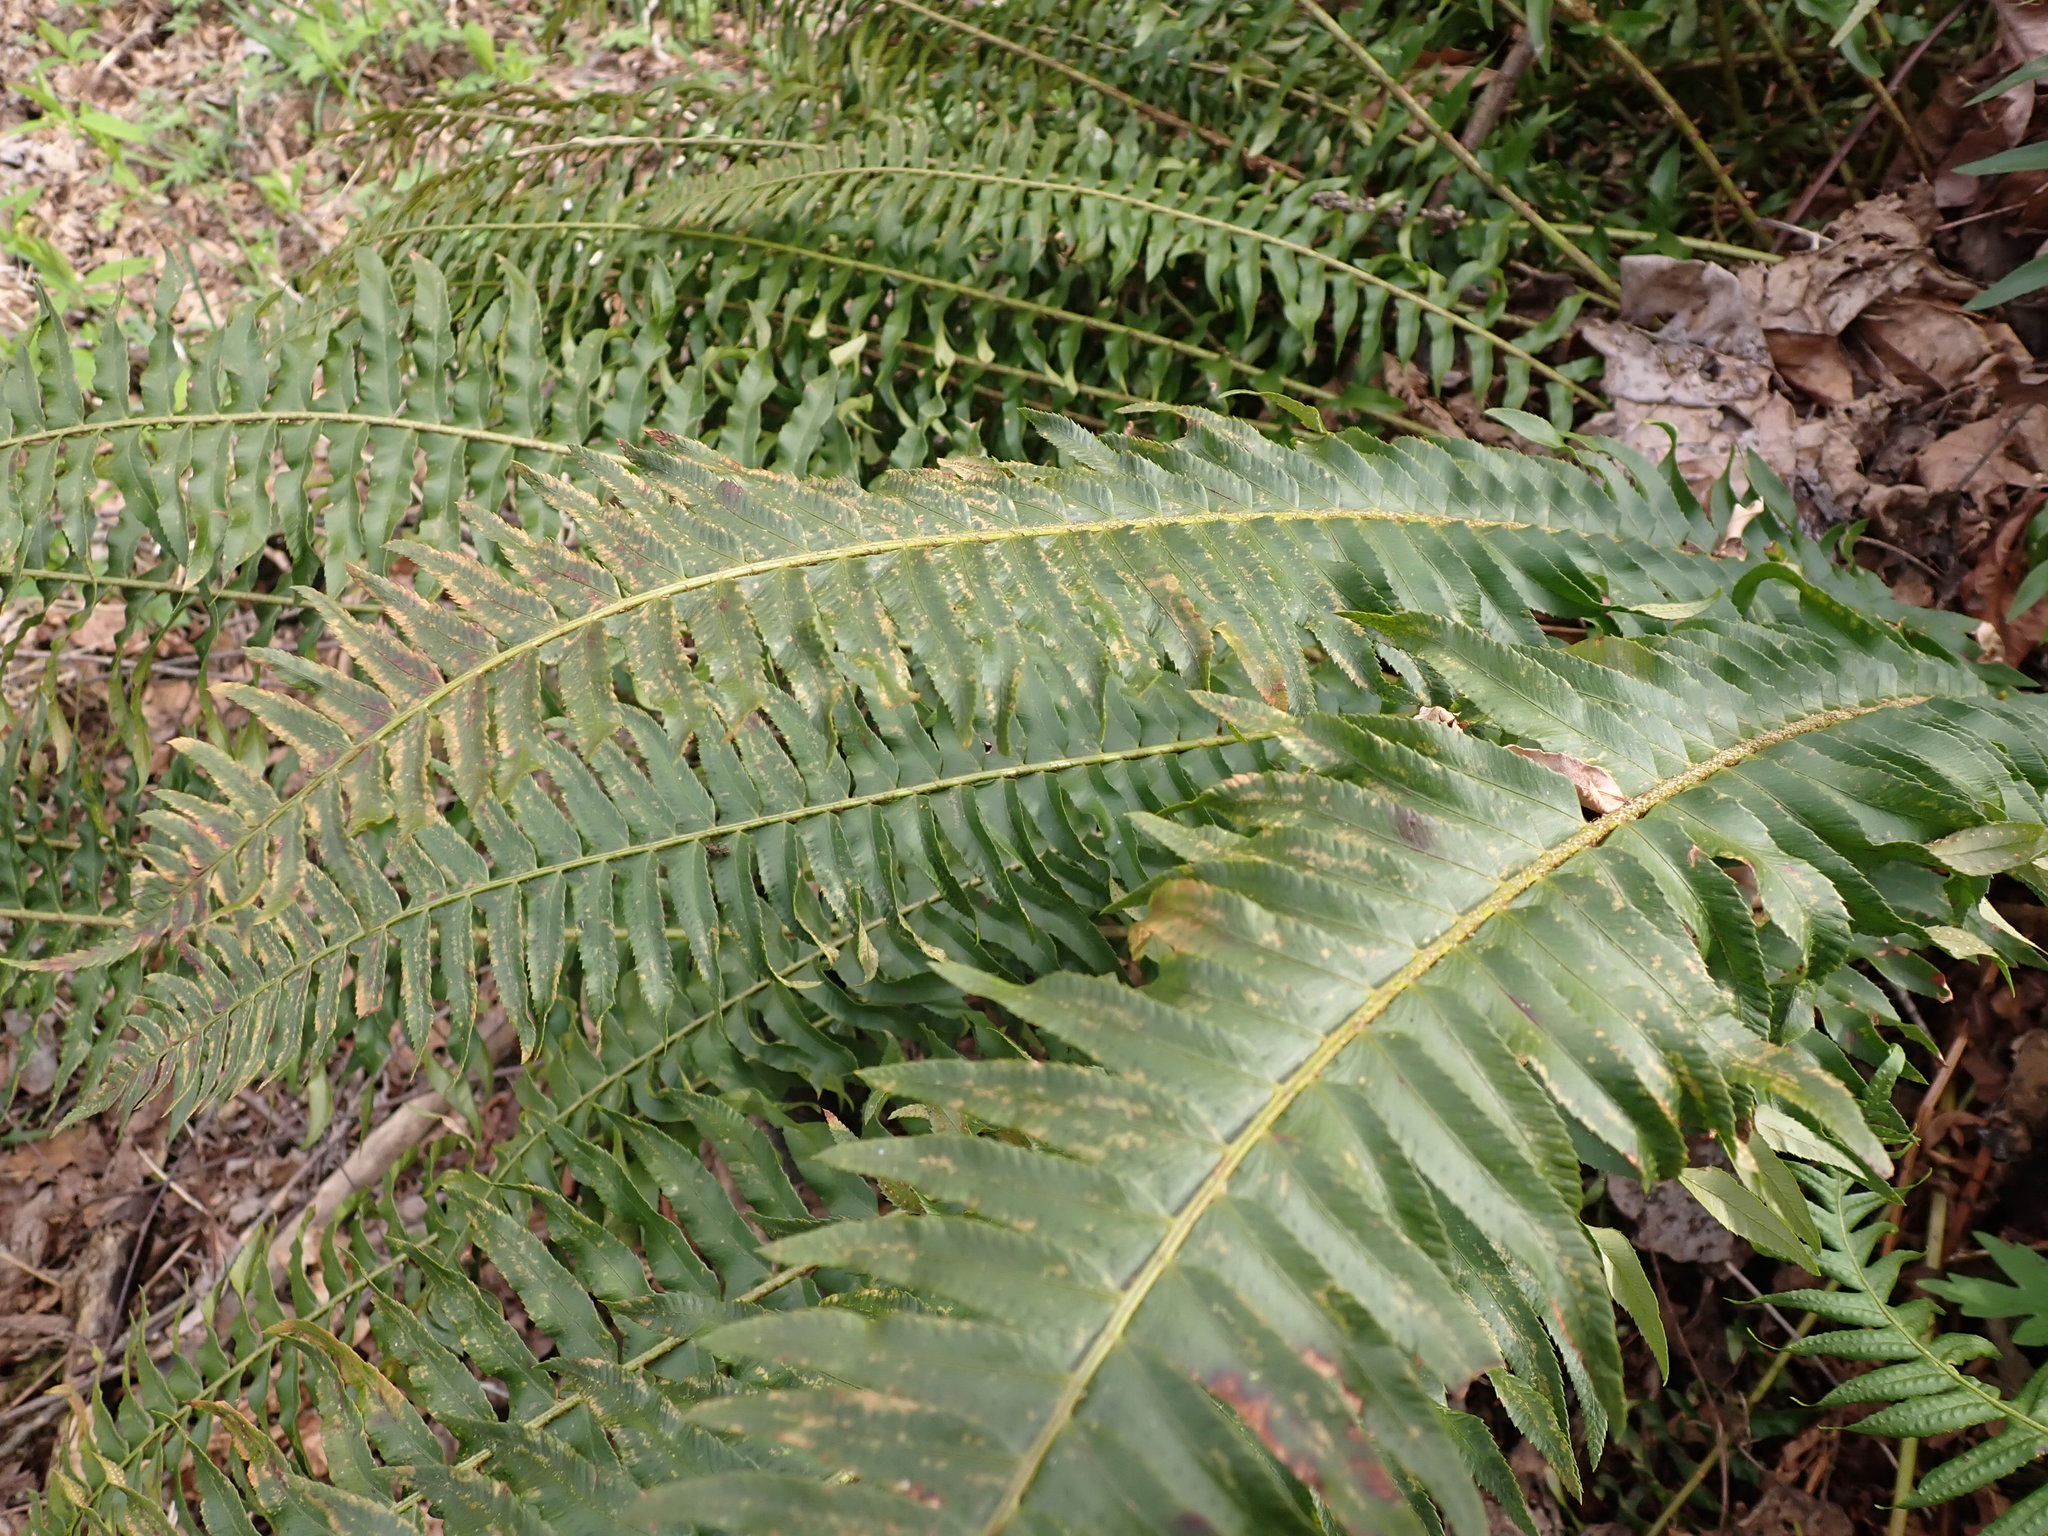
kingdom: Plantae
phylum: Tracheophyta
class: Polypodiopsida
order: Polypodiales
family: Dryopteridaceae
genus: Polystichum
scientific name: Polystichum munitum
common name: Western sword-fern
